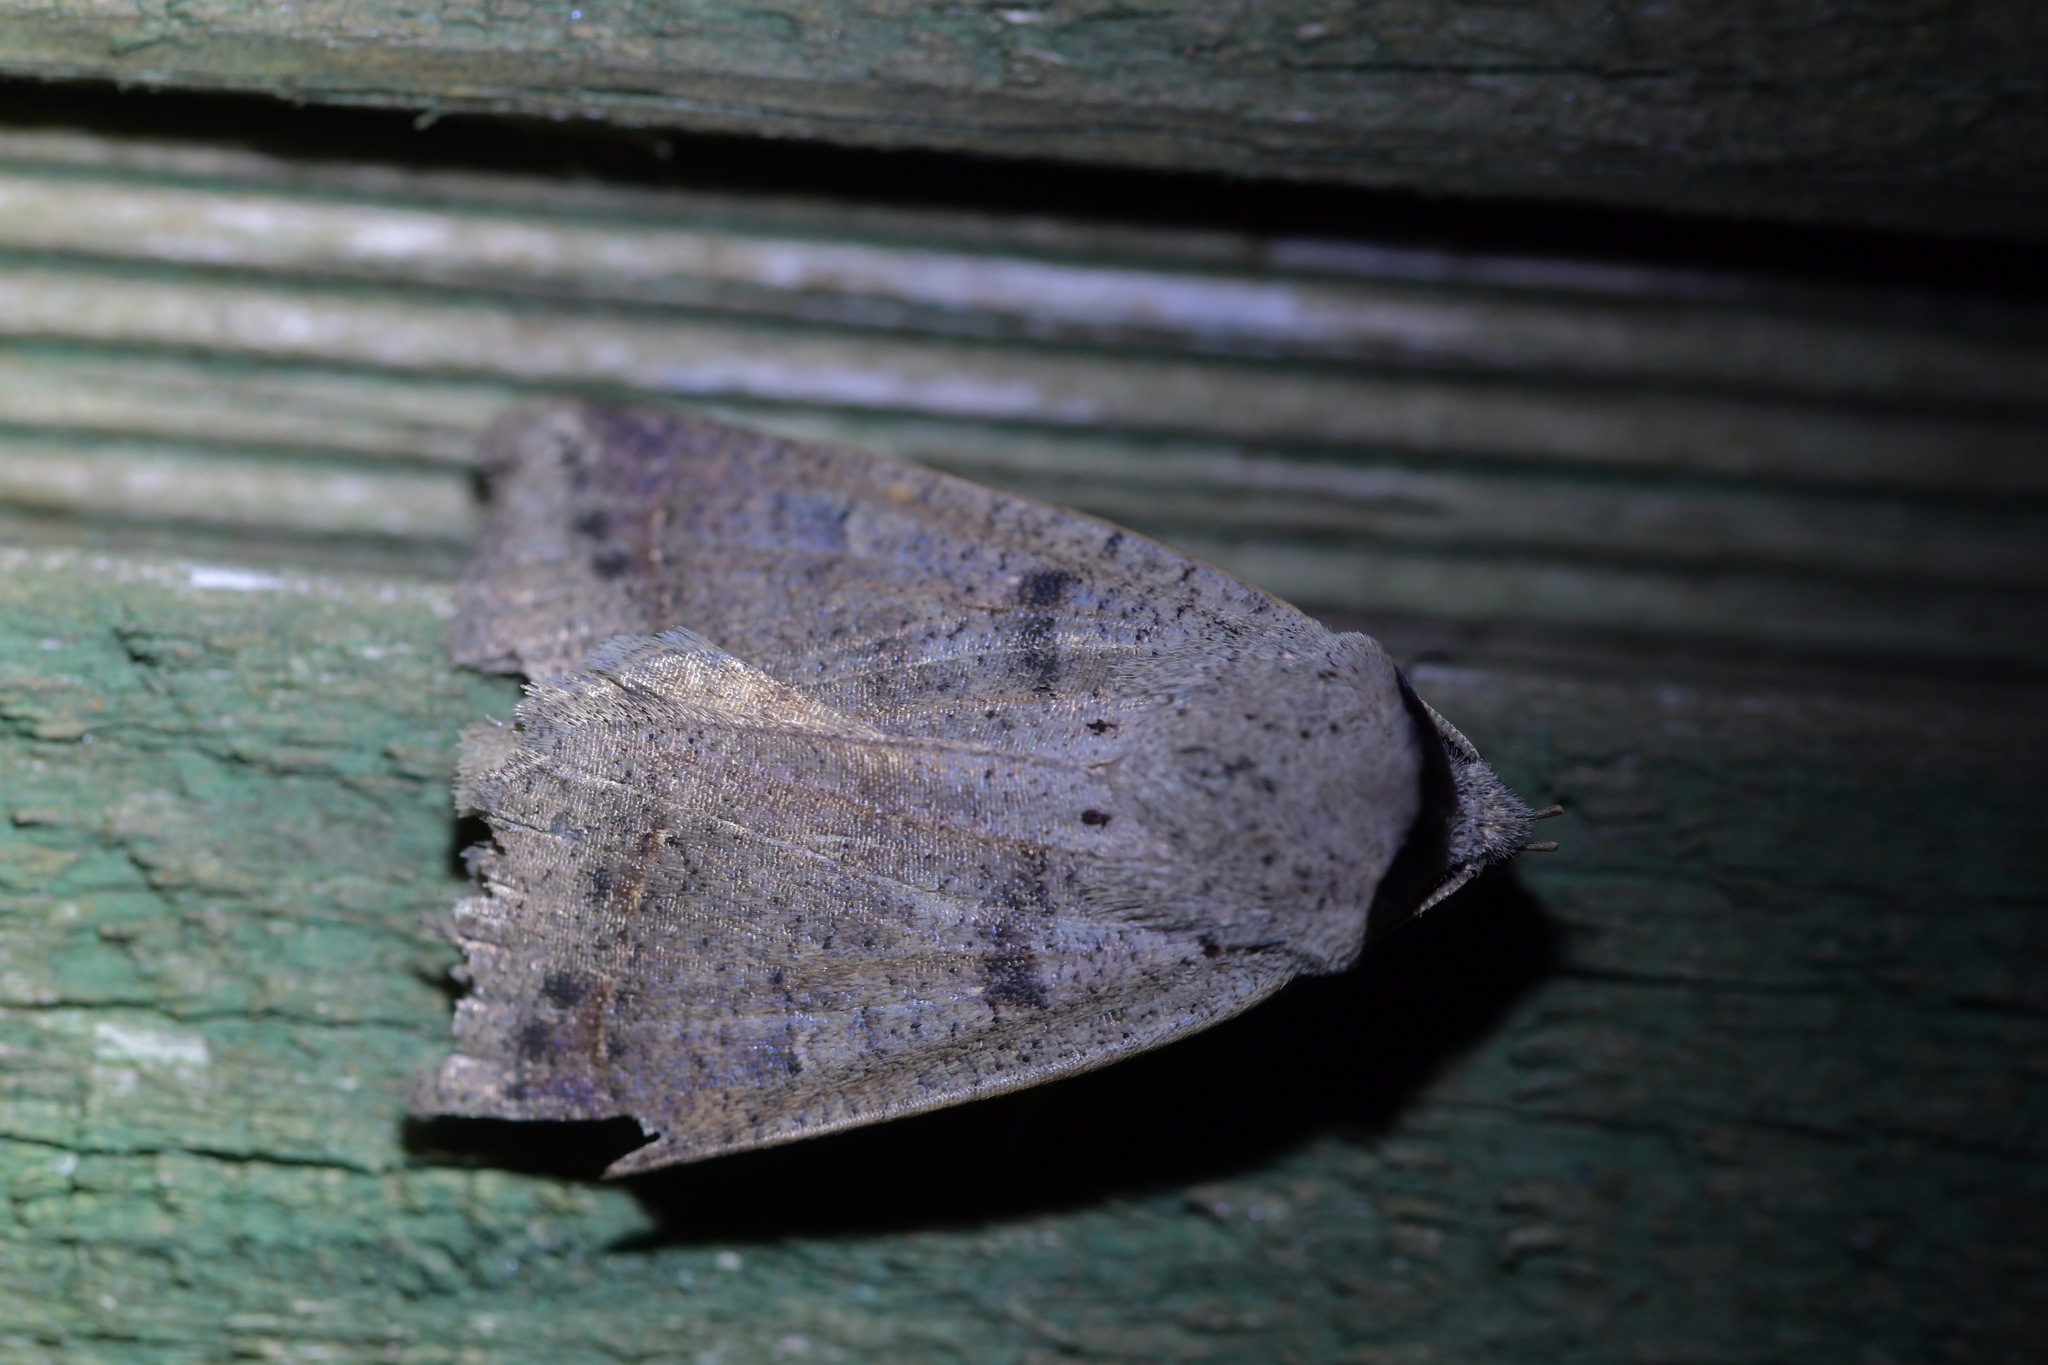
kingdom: Animalia
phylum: Arthropoda
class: Insecta
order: Lepidoptera
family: Erebidae
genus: Pantydia
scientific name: Pantydia sparsa
